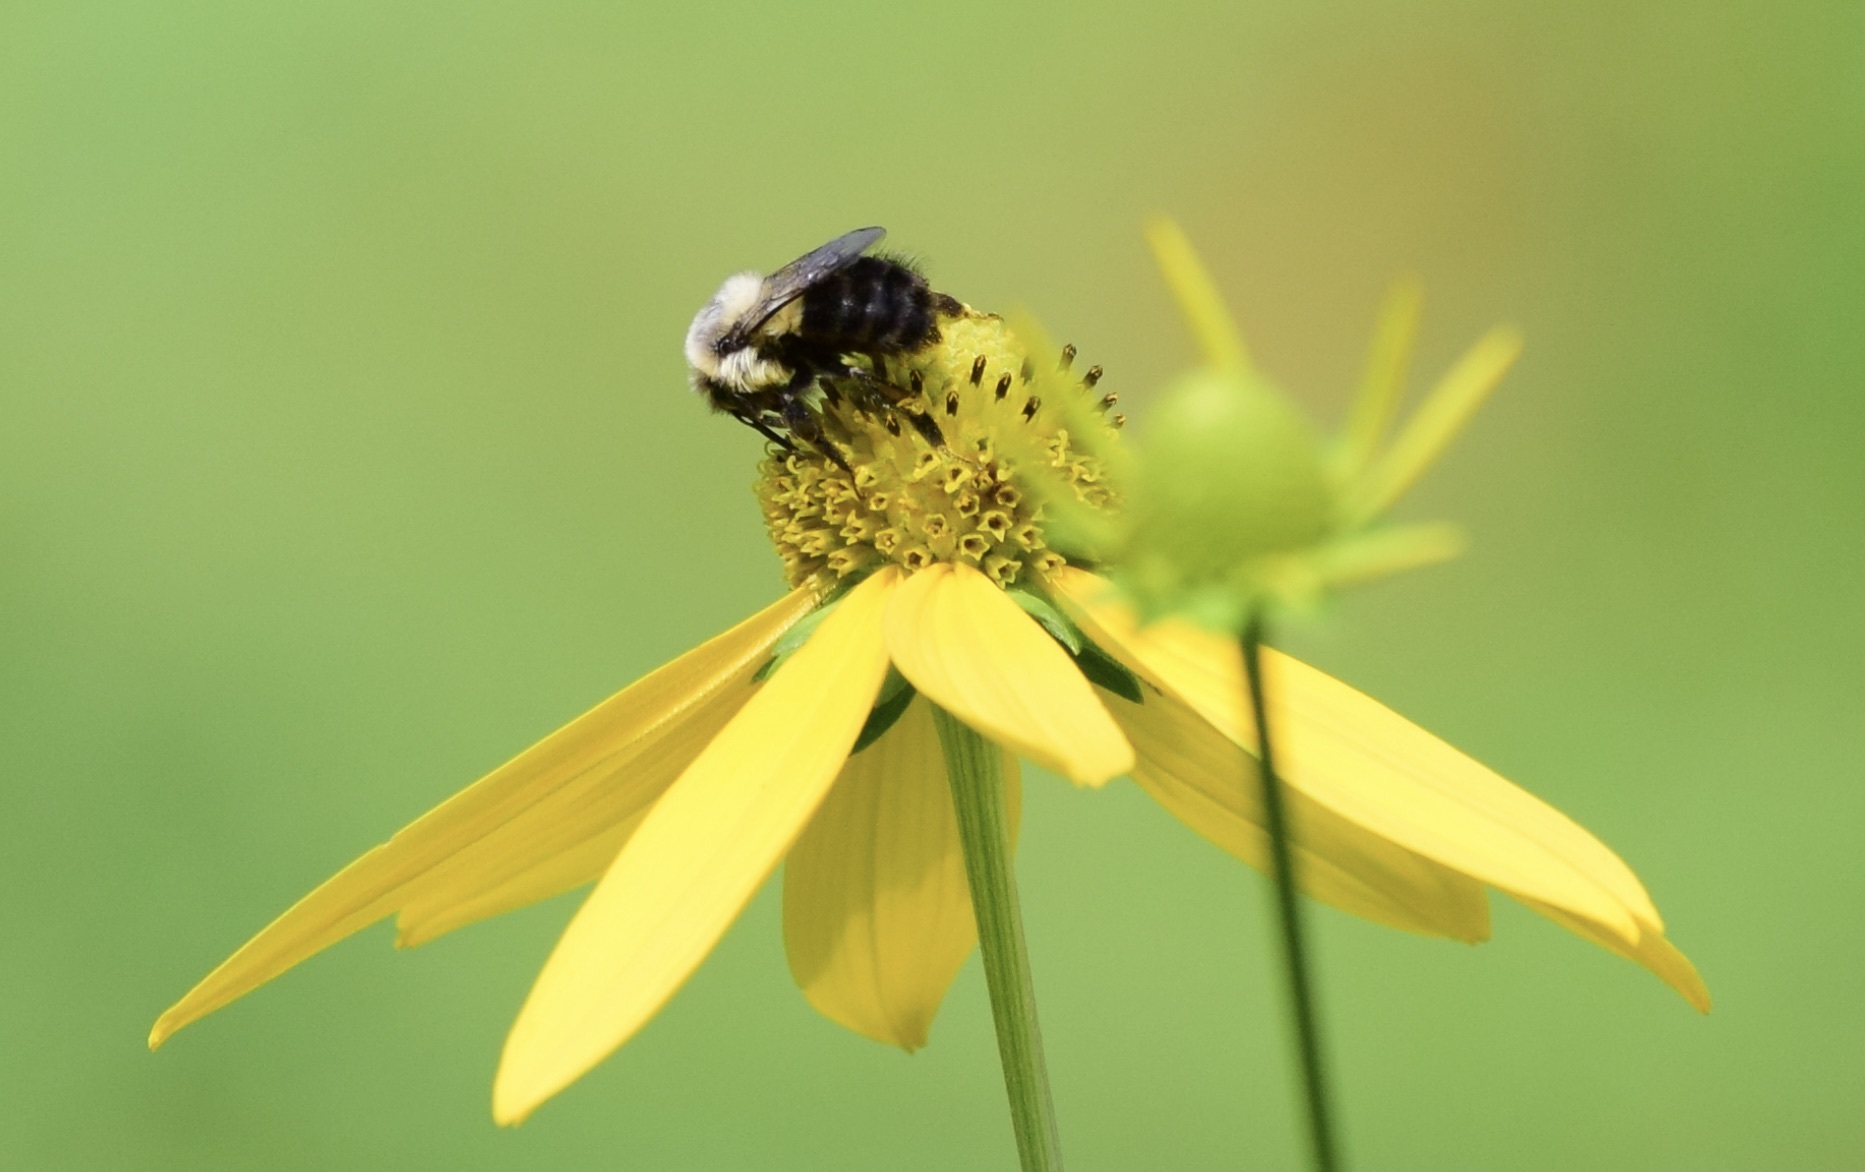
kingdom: Animalia
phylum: Arthropoda
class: Insecta
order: Hymenoptera
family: Apidae
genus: Bombus
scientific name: Bombus impatiens
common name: Common eastern bumble bee
